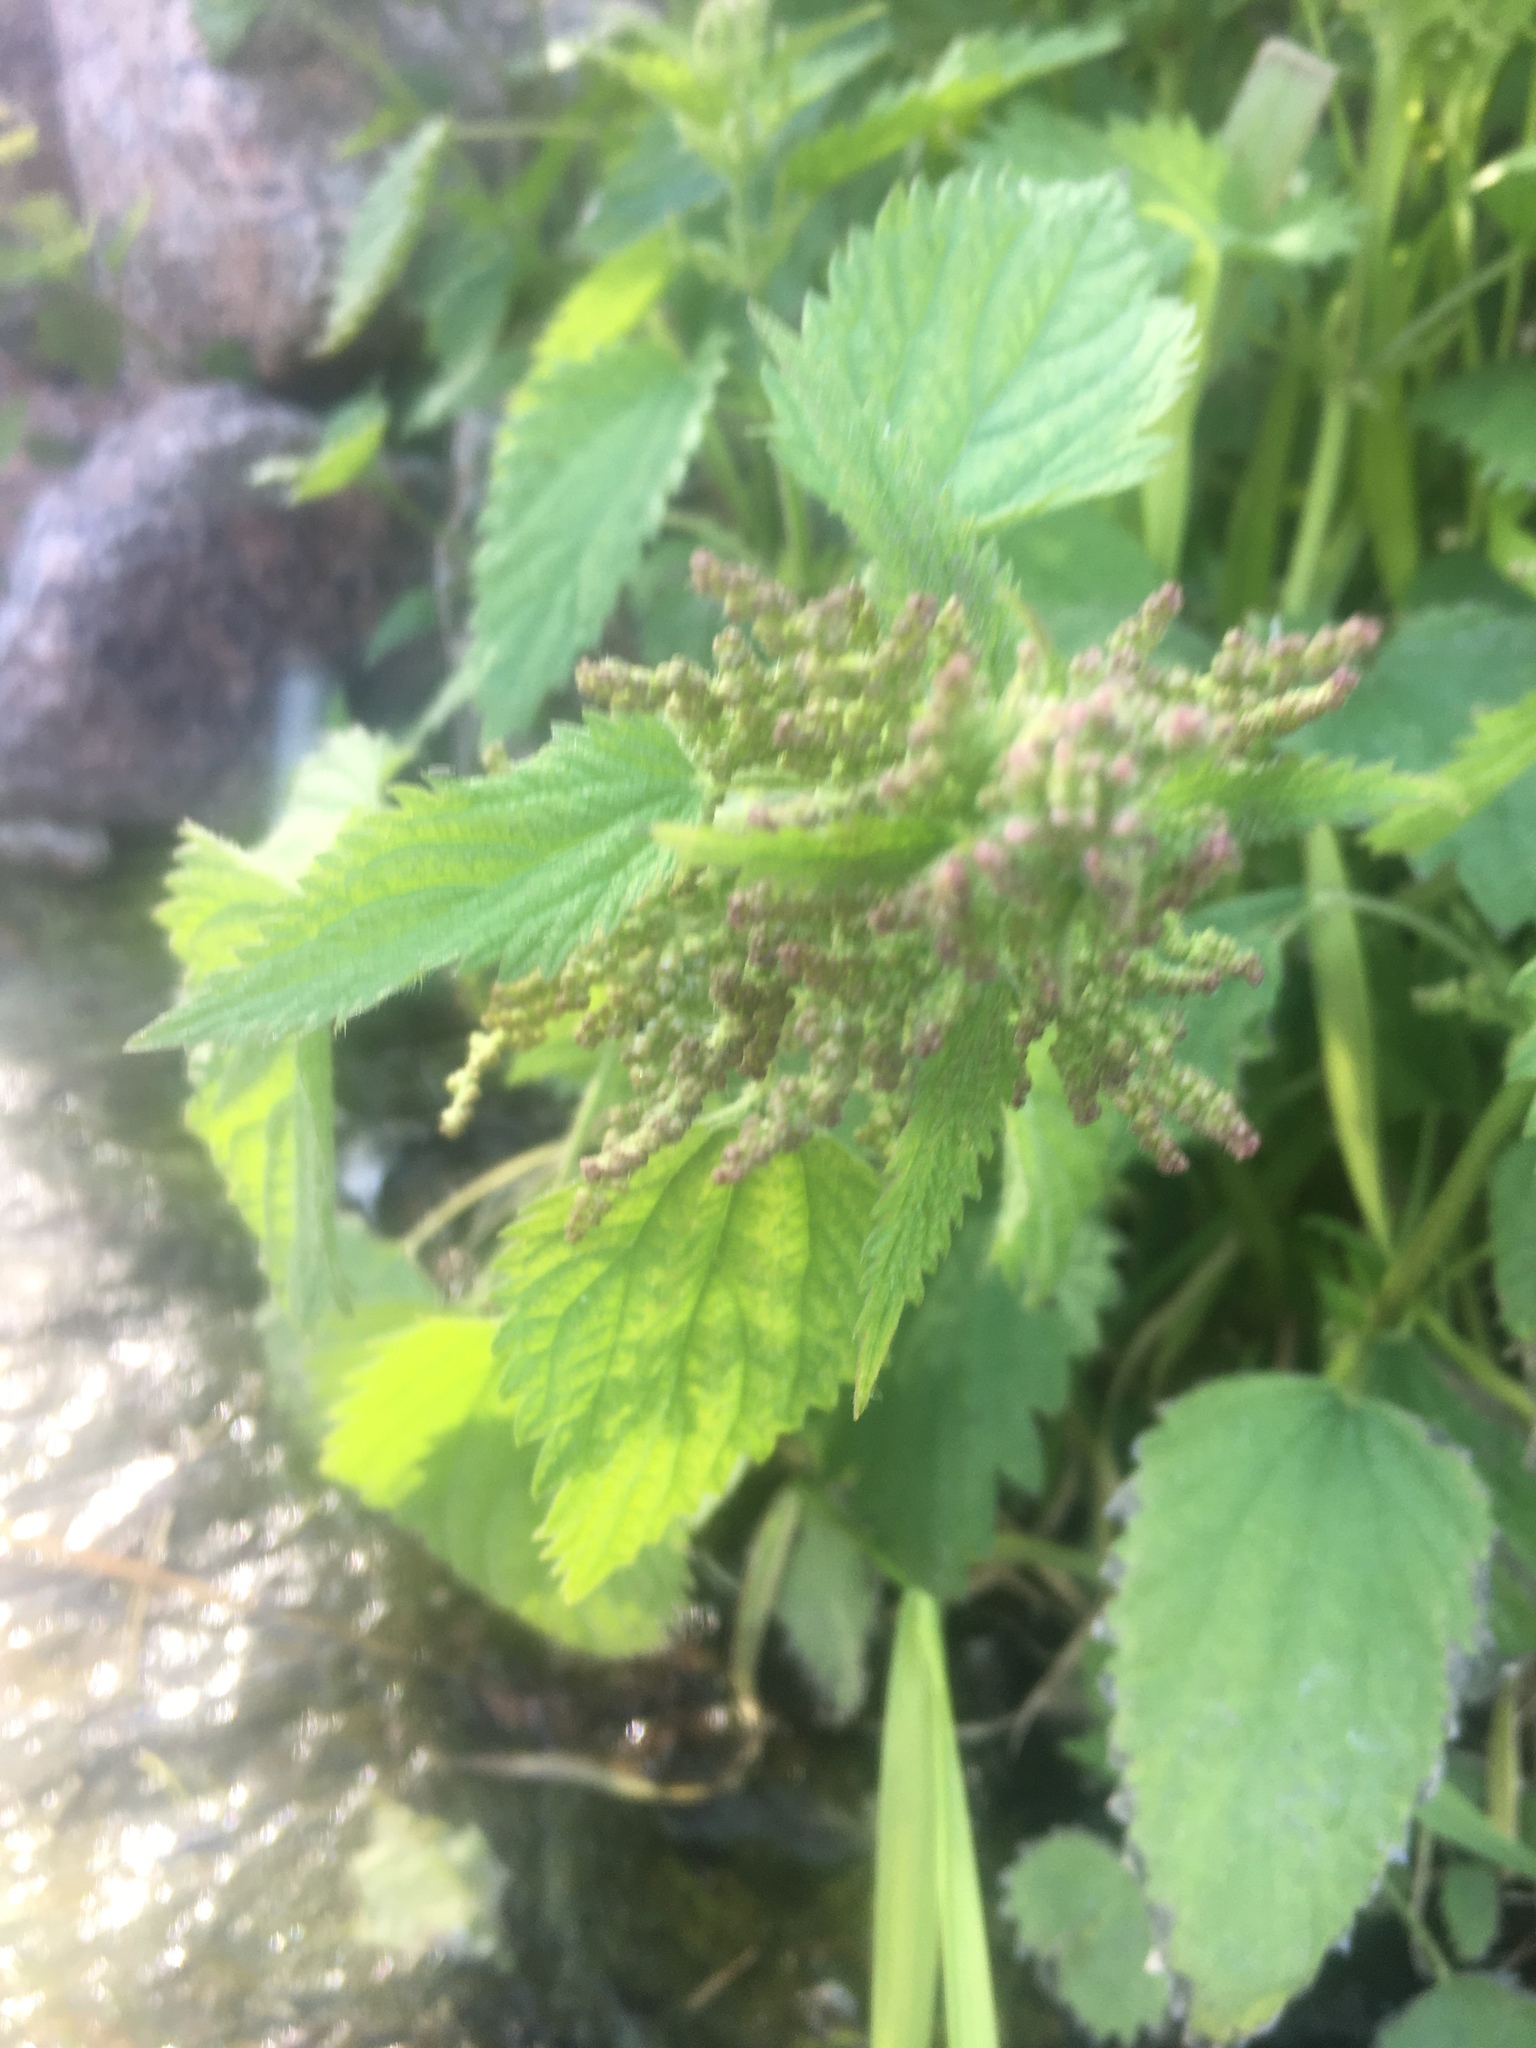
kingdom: Plantae
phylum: Tracheophyta
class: Magnoliopsida
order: Rosales
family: Urticaceae
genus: Urtica
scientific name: Urtica dioica
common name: Common nettle
